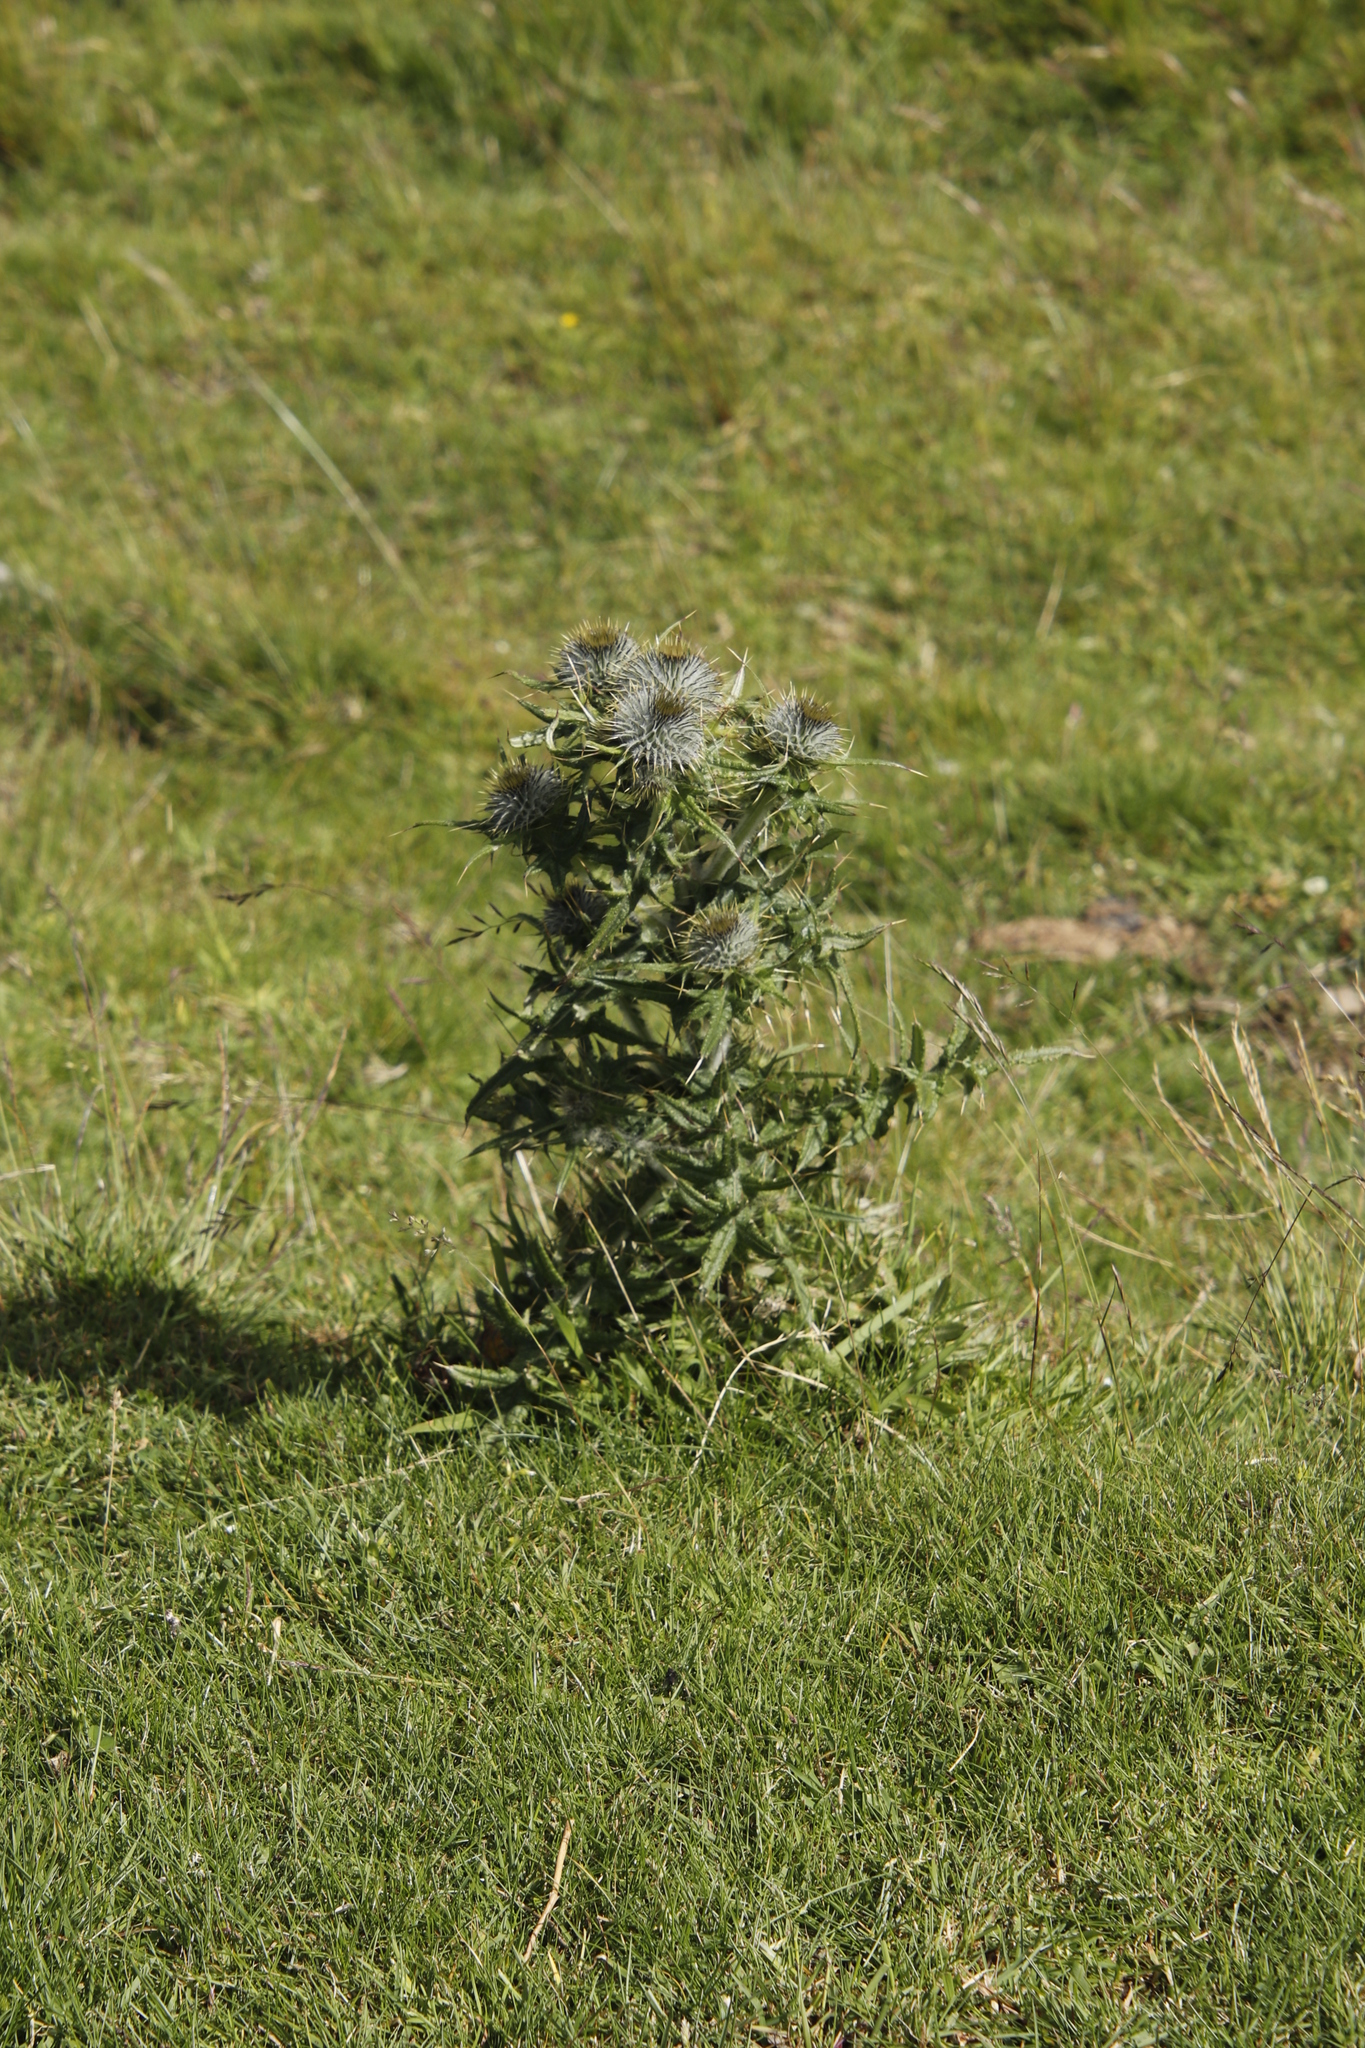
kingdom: Plantae
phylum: Tracheophyta
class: Magnoliopsida
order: Asterales
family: Asteraceae
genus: Cirsium
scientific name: Cirsium vulgare
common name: Bull thistle
